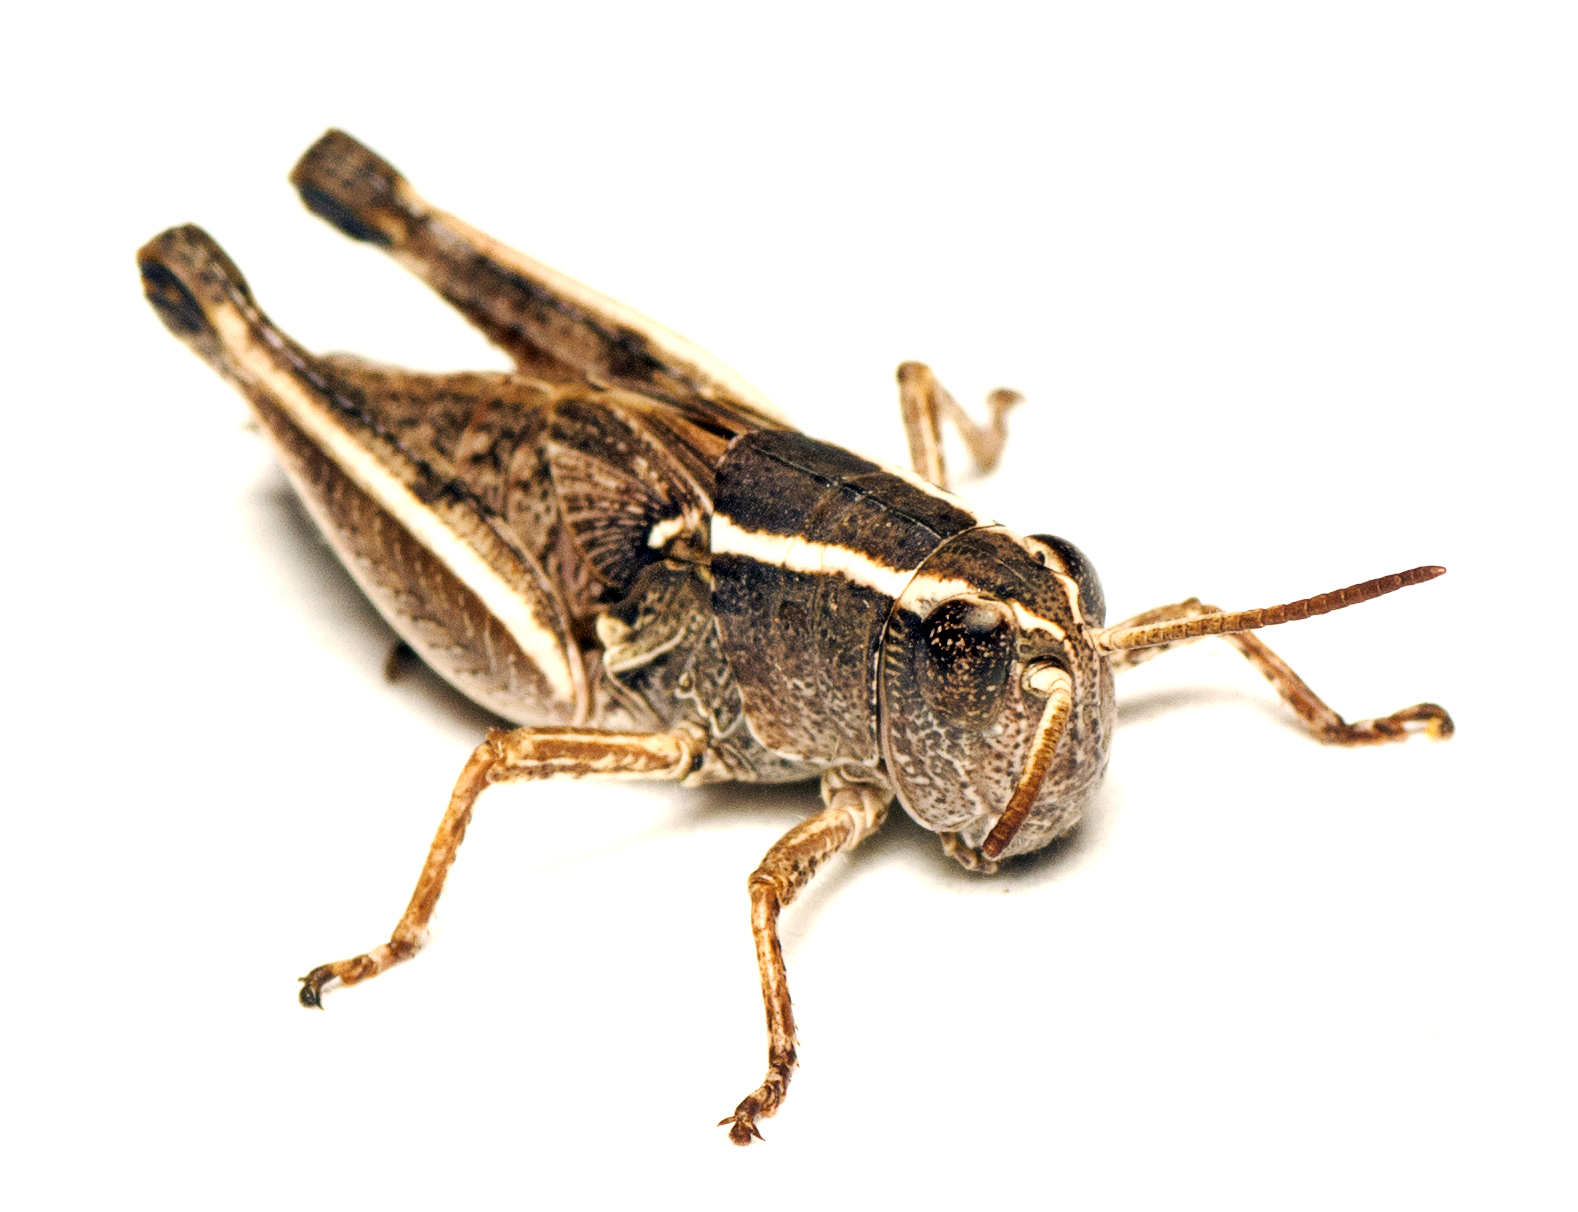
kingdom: Animalia
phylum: Arthropoda
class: Insecta
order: Orthoptera
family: Acrididae
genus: Phaulacridium
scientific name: Phaulacridium vittatum
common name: Wingless grasshopper
